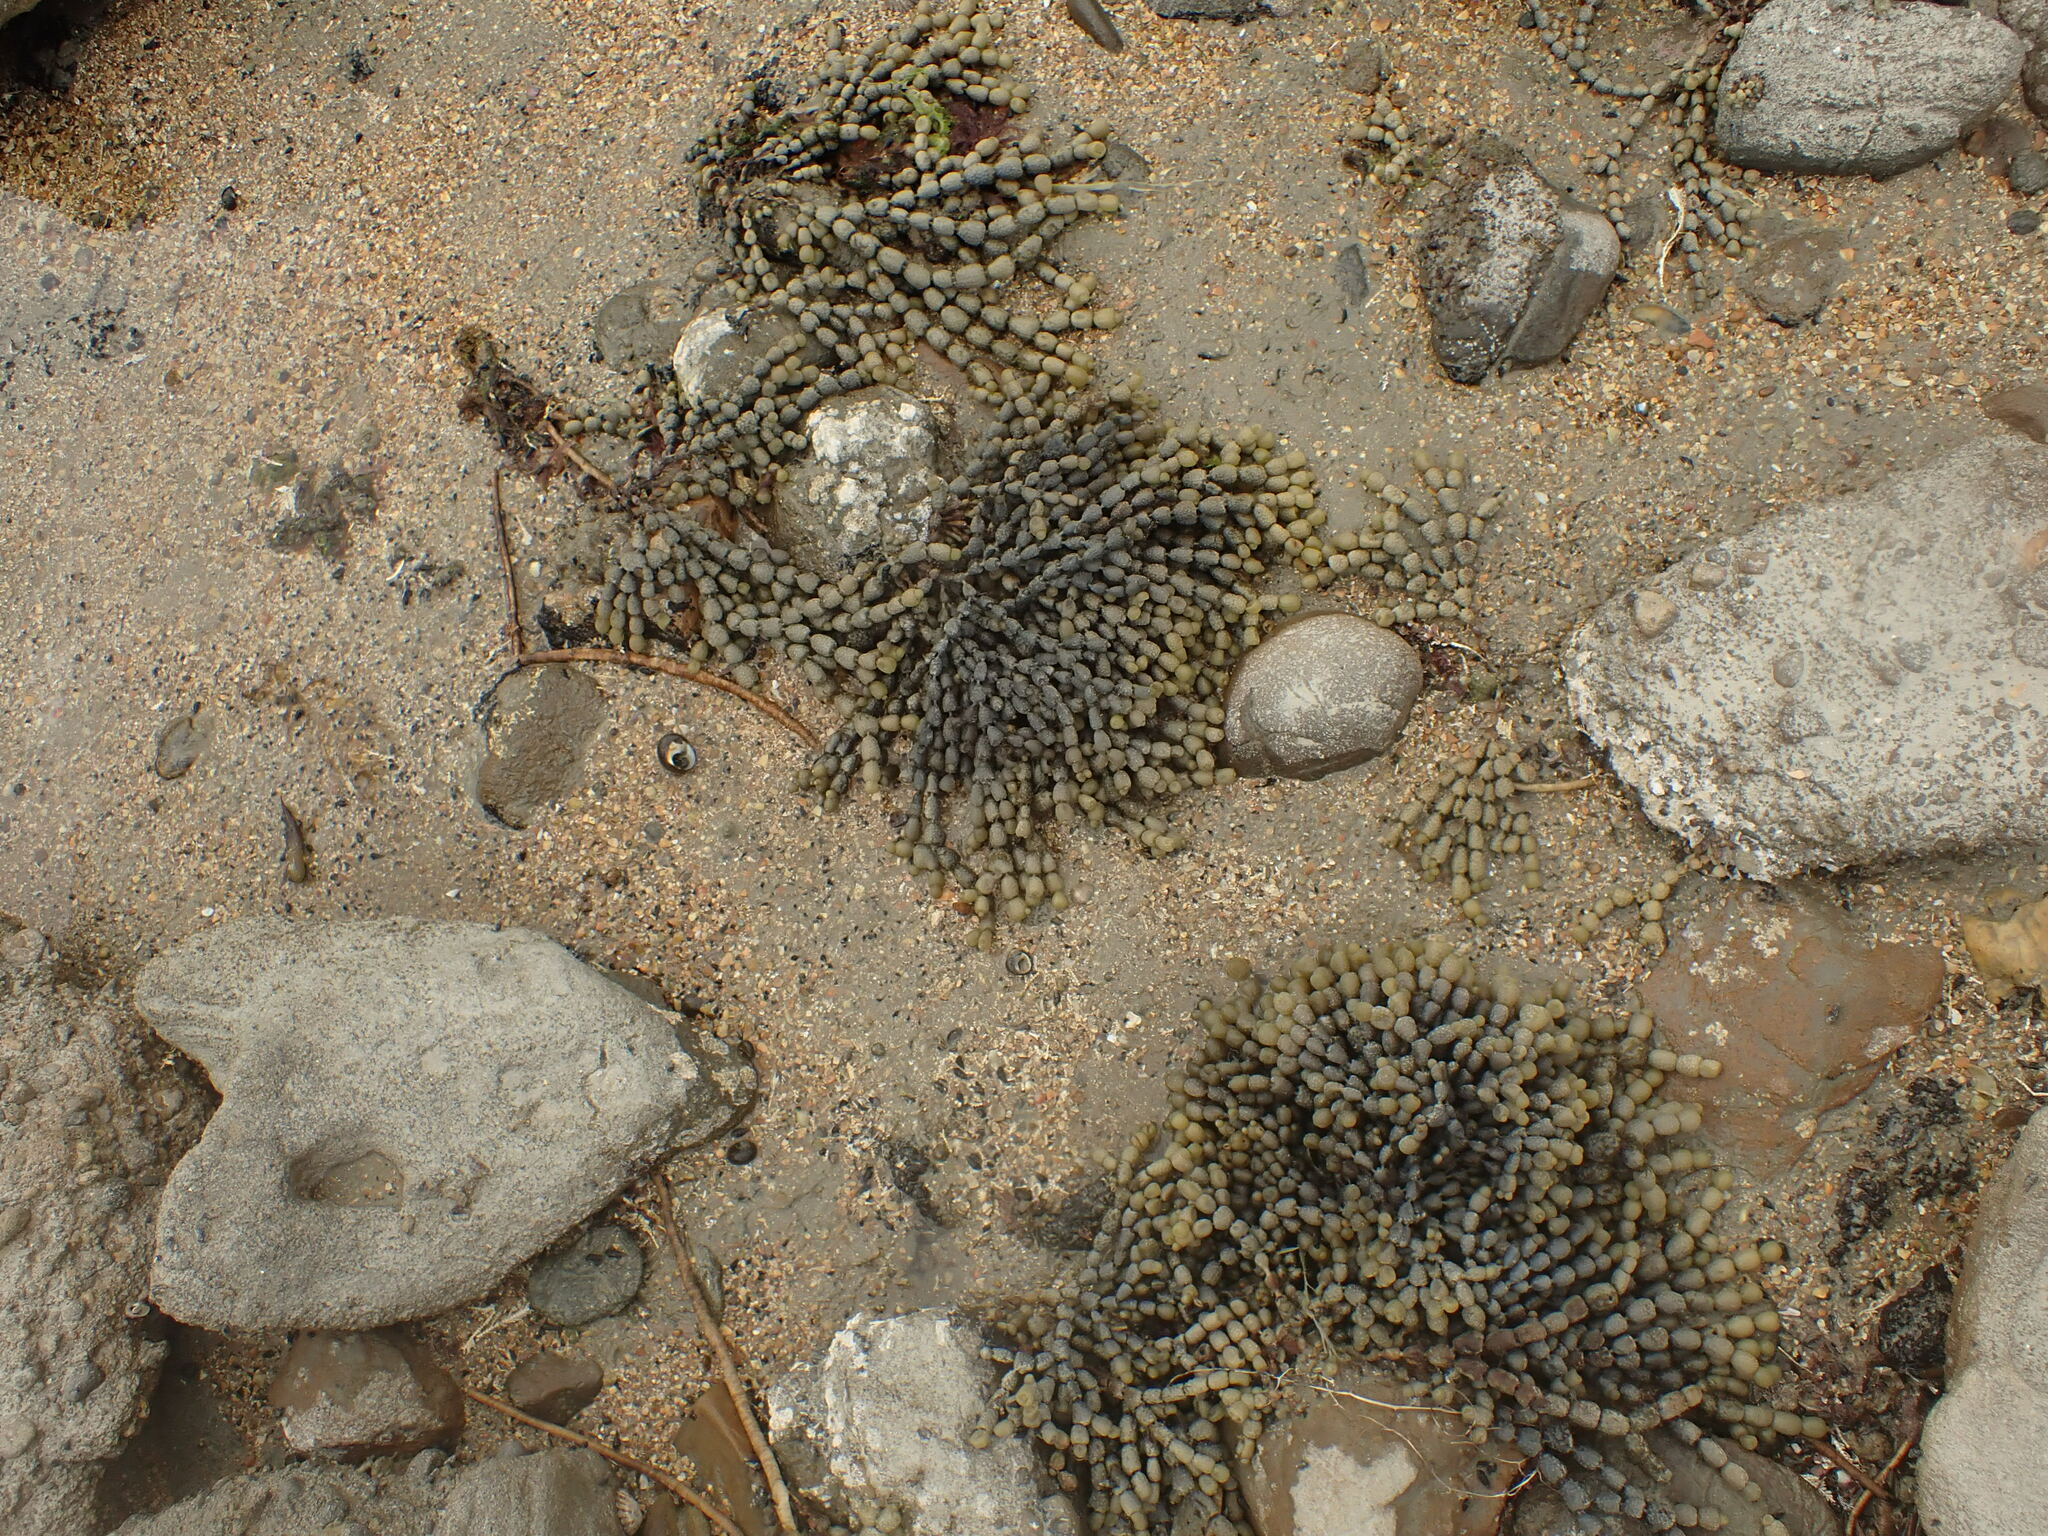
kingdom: Chromista
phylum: Ochrophyta
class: Phaeophyceae
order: Fucales
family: Hormosiraceae
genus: Hormosira
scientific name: Hormosira banksii
